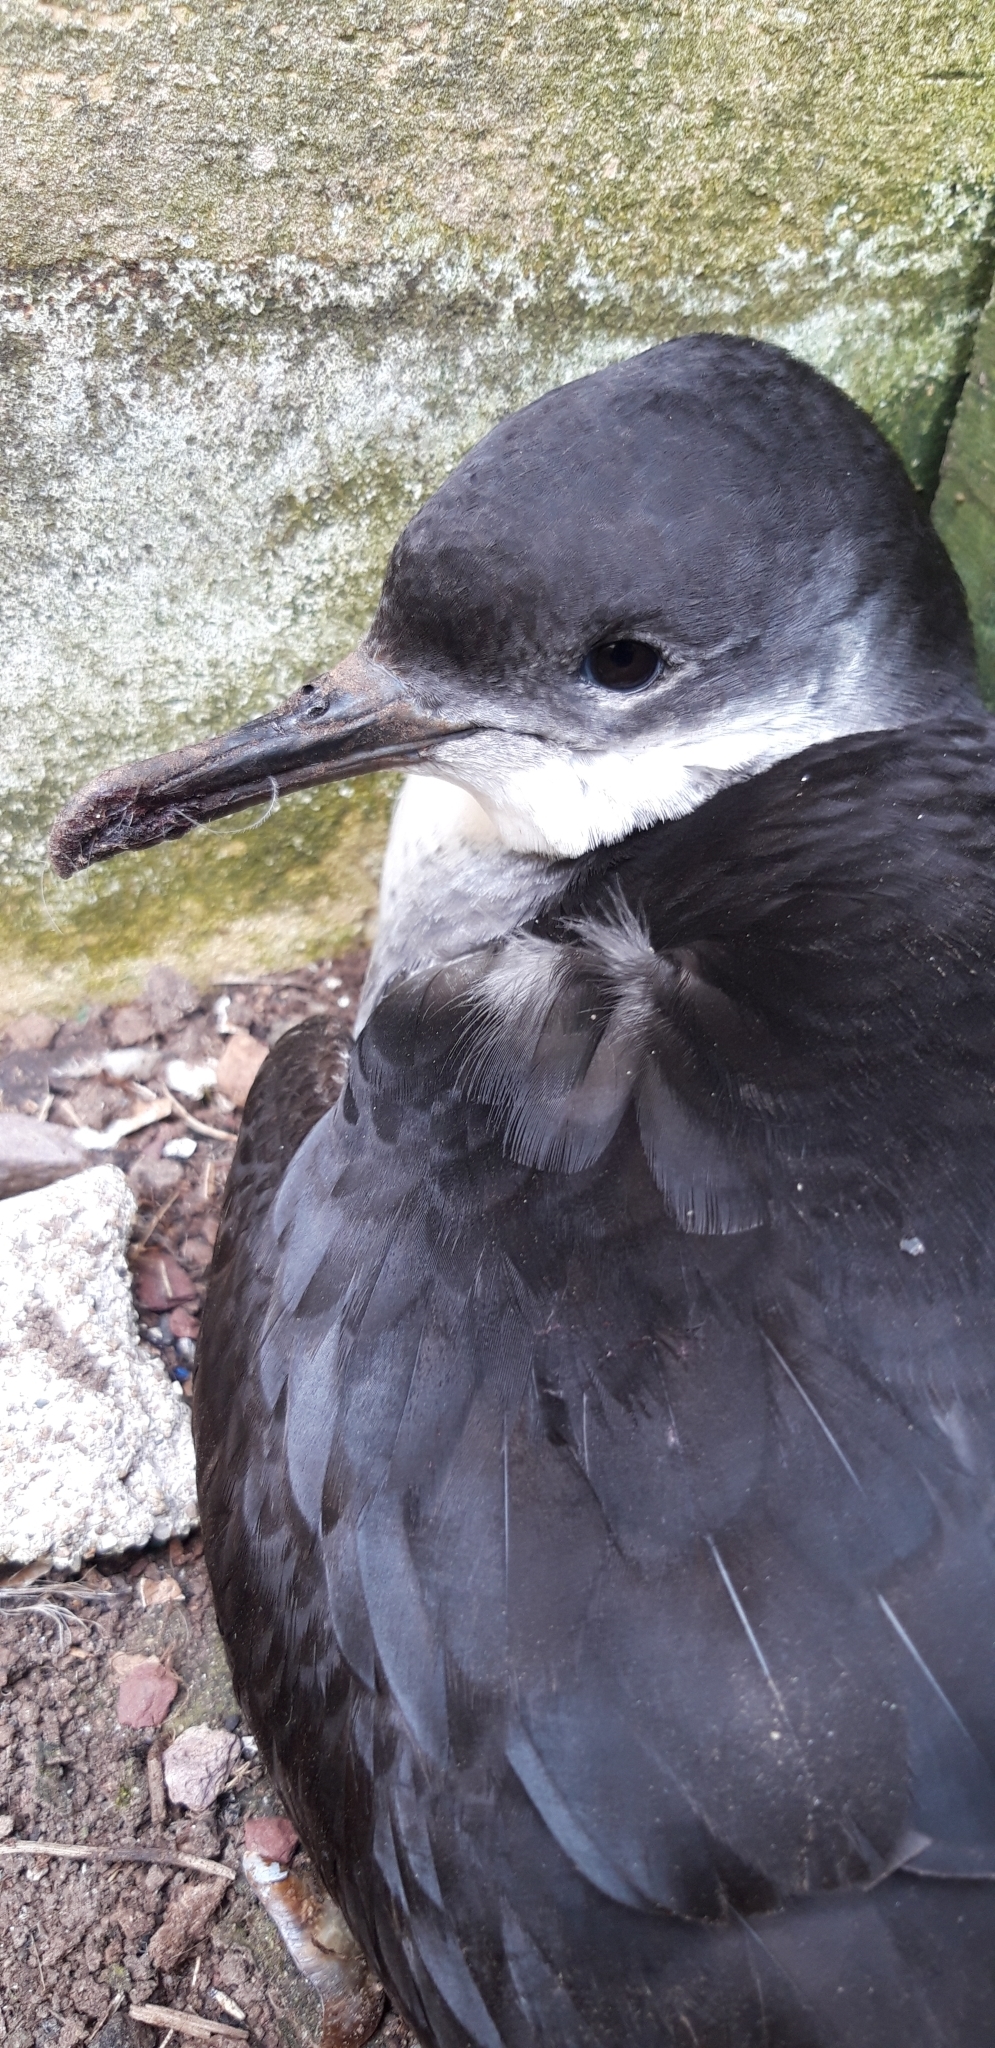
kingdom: Animalia
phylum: Chordata
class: Aves
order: Procellariiformes
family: Procellariidae
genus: Puffinus
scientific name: Puffinus puffinus
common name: Manx shearwater
